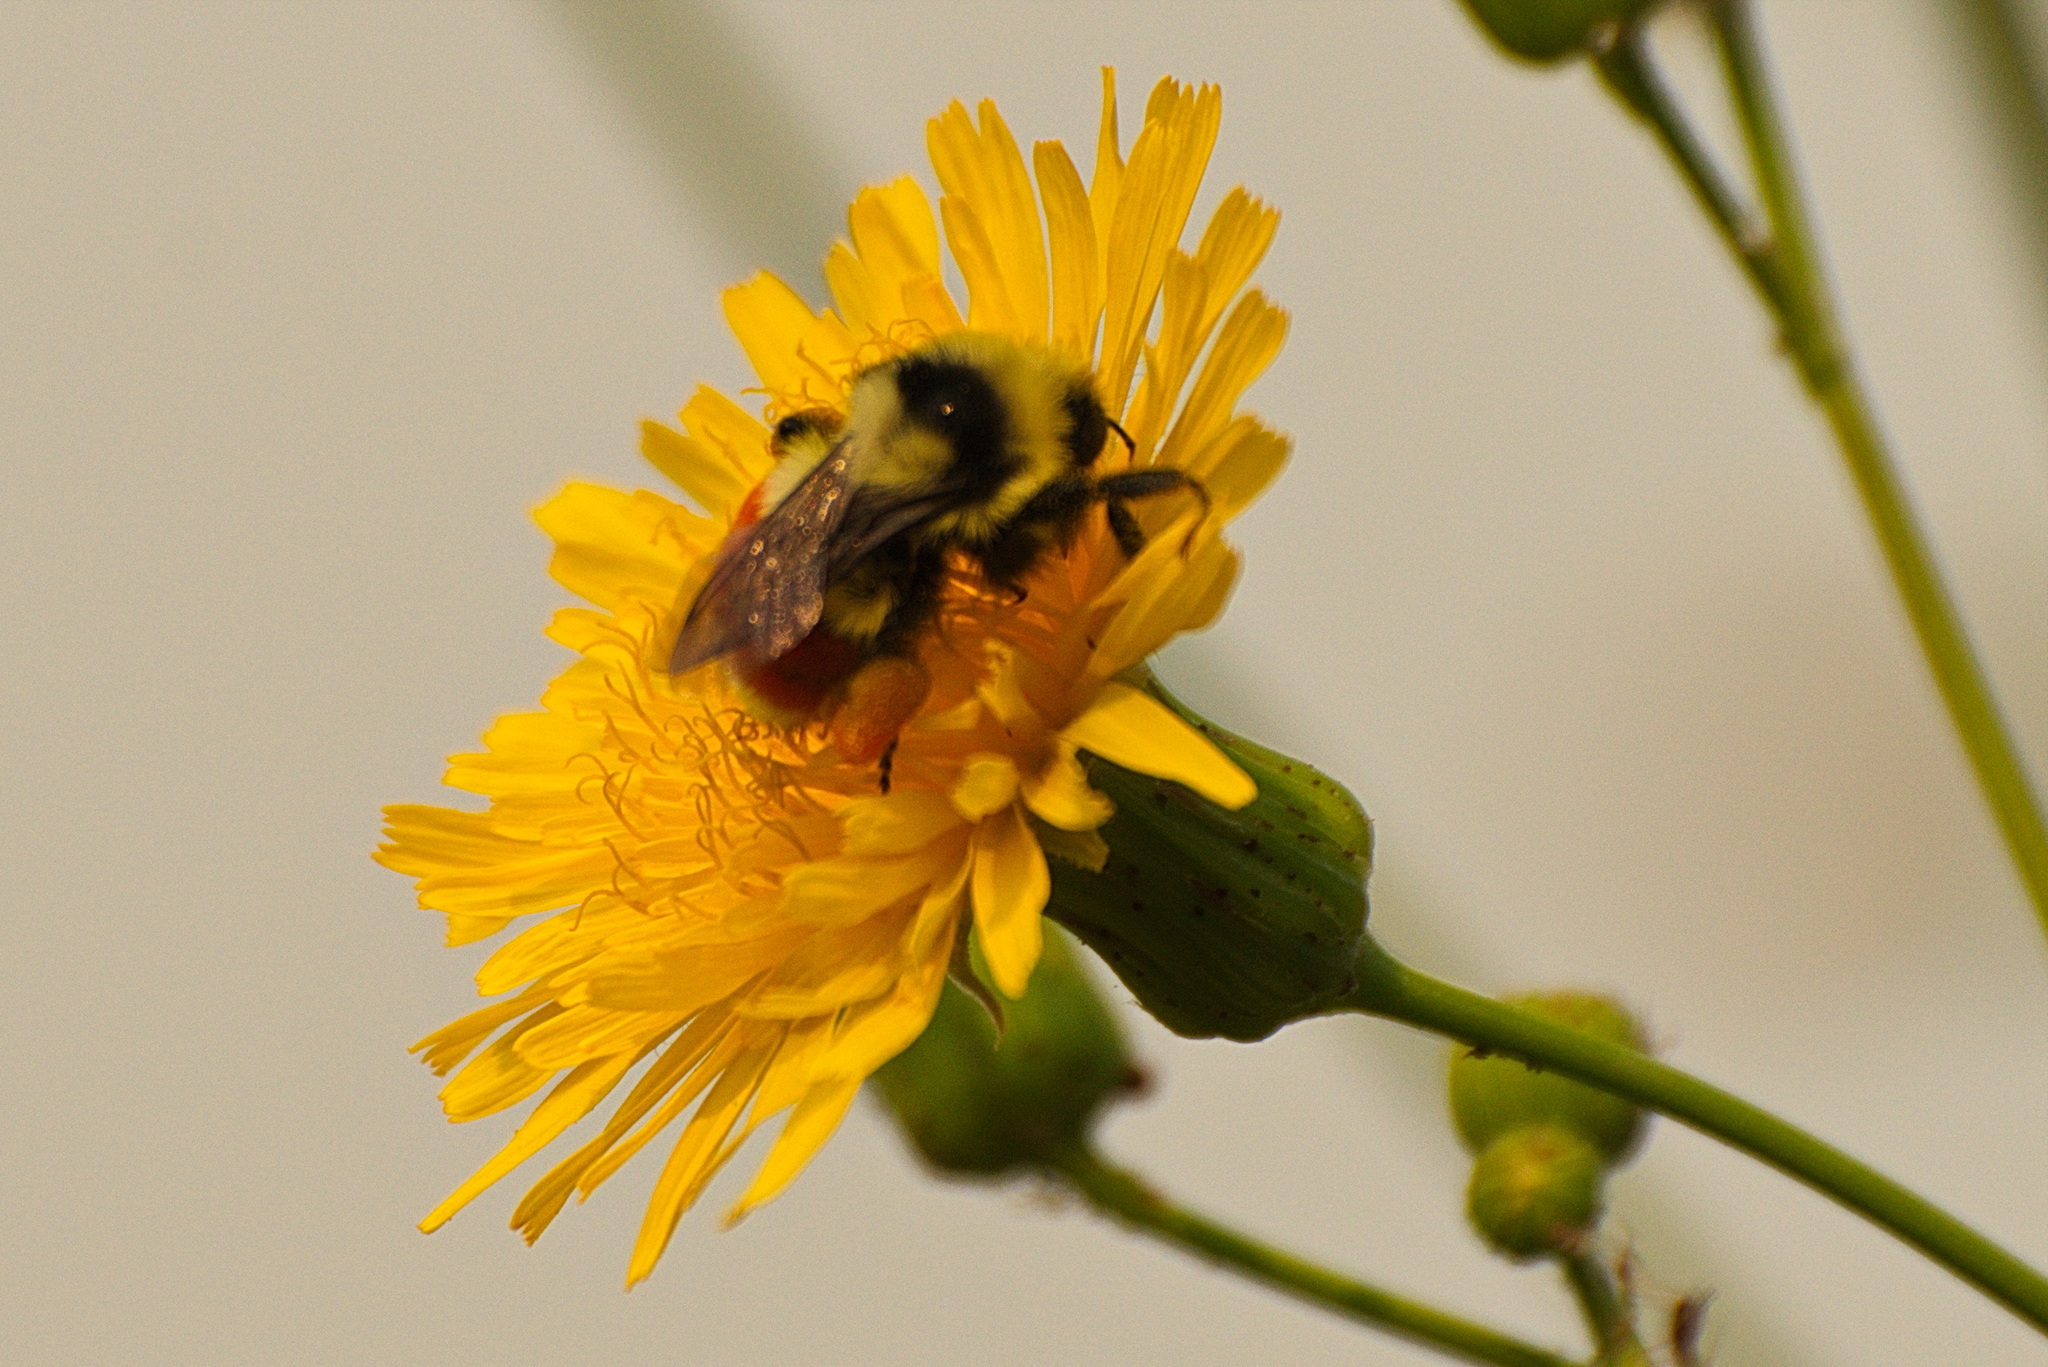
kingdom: Animalia
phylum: Arthropoda
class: Insecta
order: Hymenoptera
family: Apidae
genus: Bombus
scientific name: Bombus huntii
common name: Hunt bumble bee
